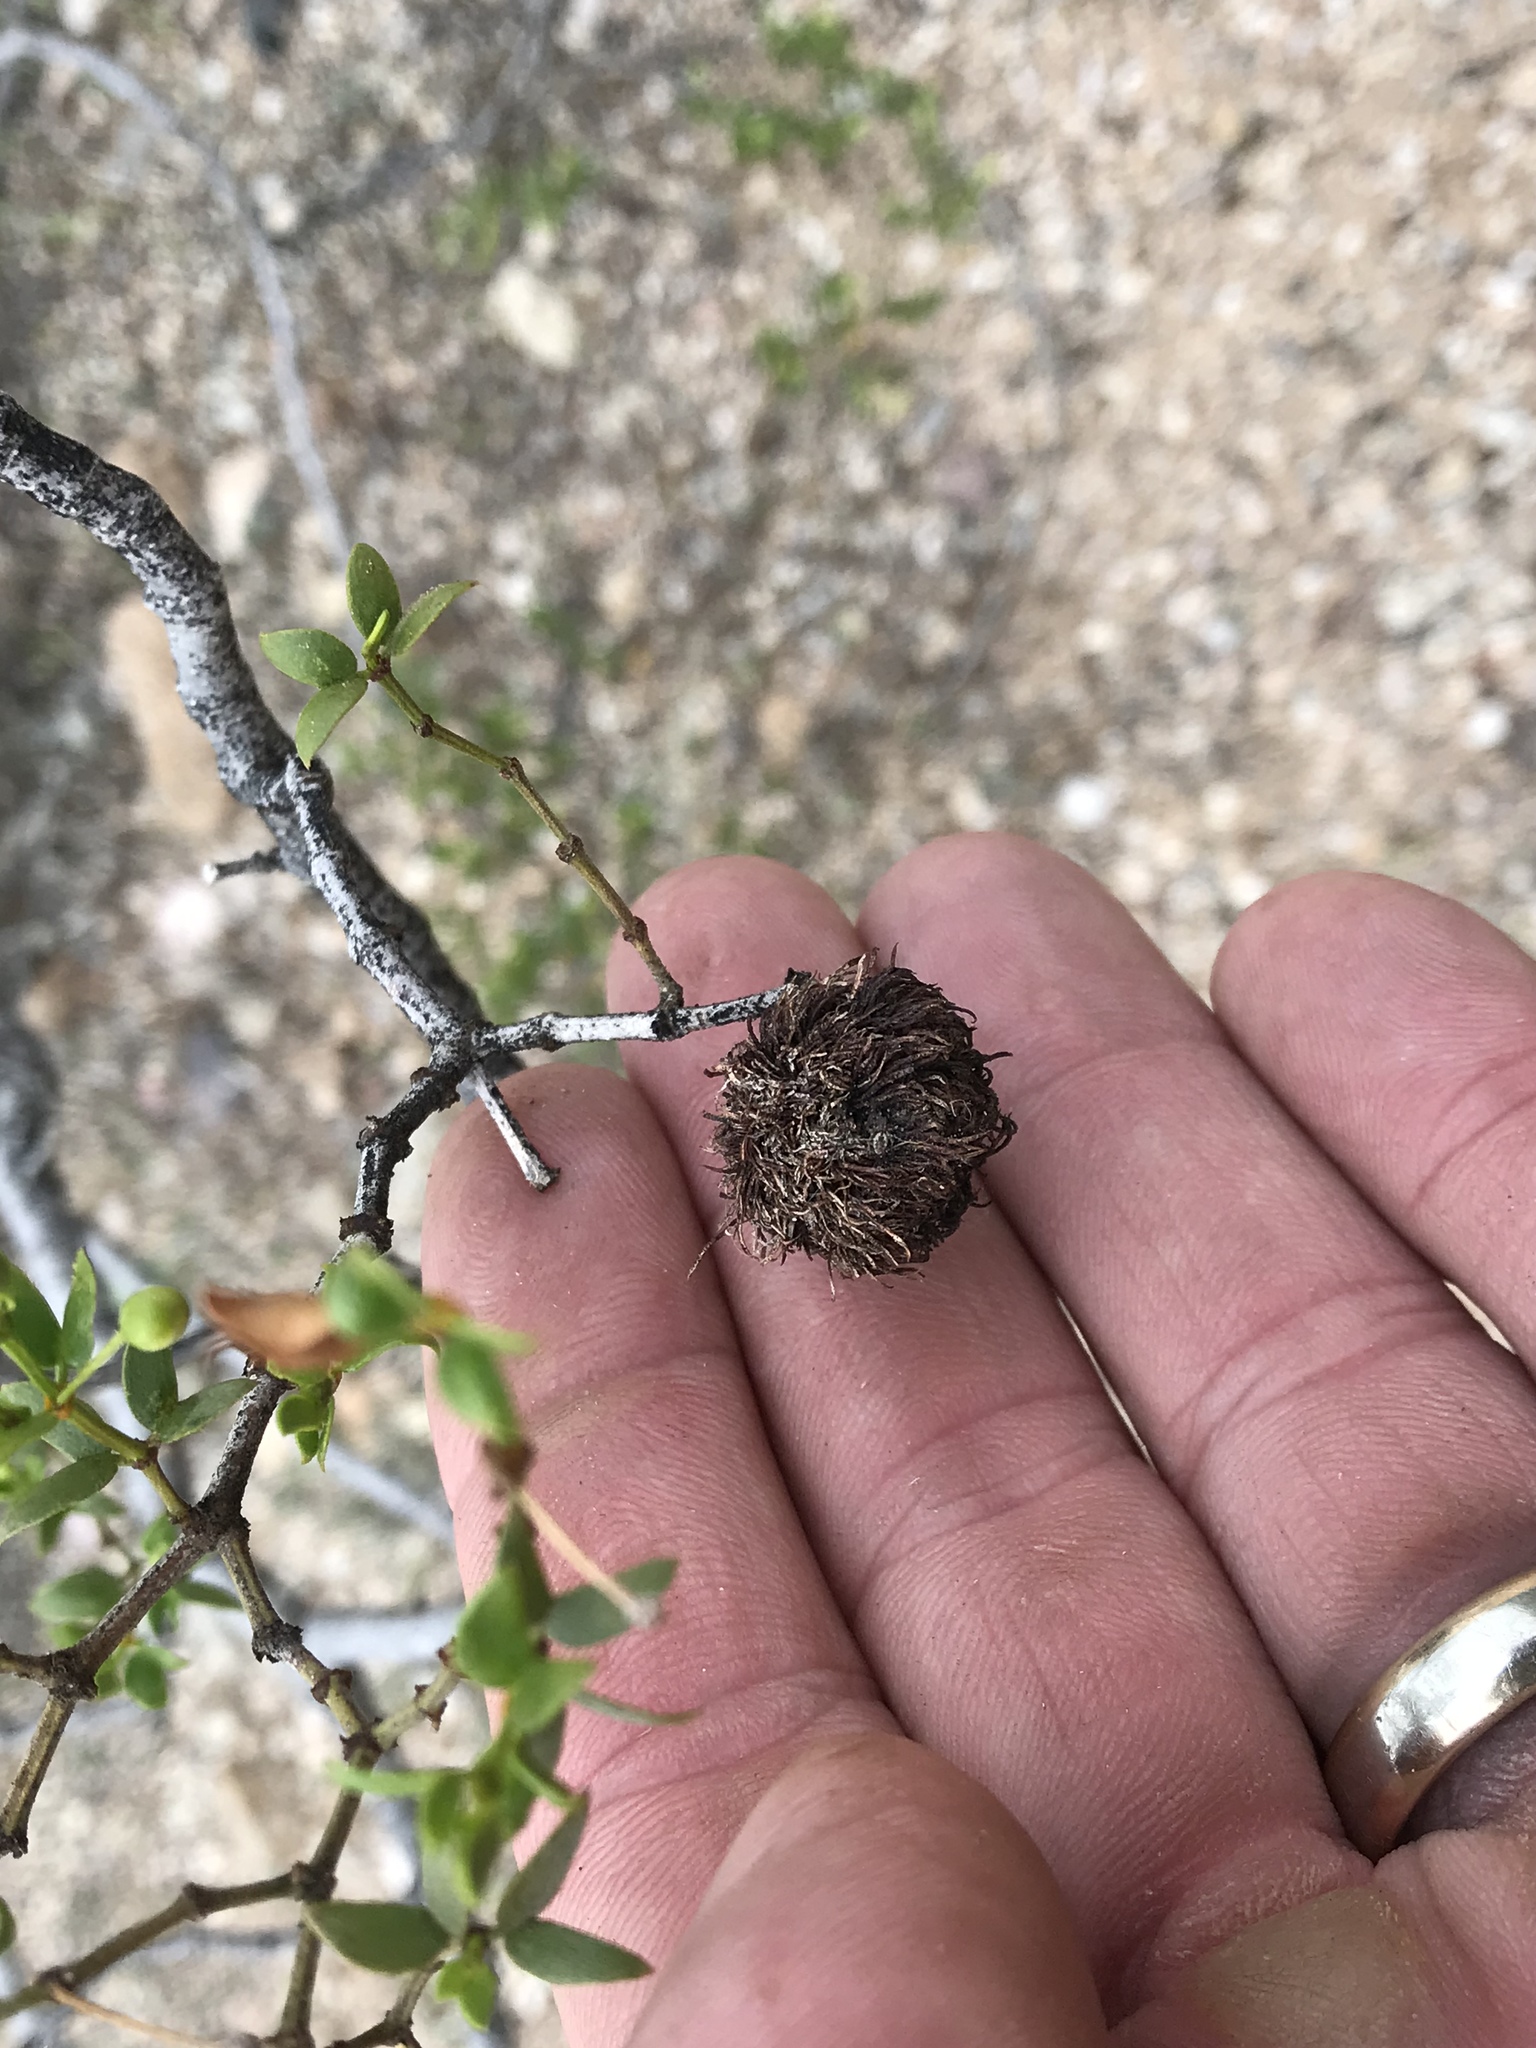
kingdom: Animalia
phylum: Arthropoda
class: Insecta
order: Diptera
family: Cecidomyiidae
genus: Asphondylia
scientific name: Asphondylia auripila
